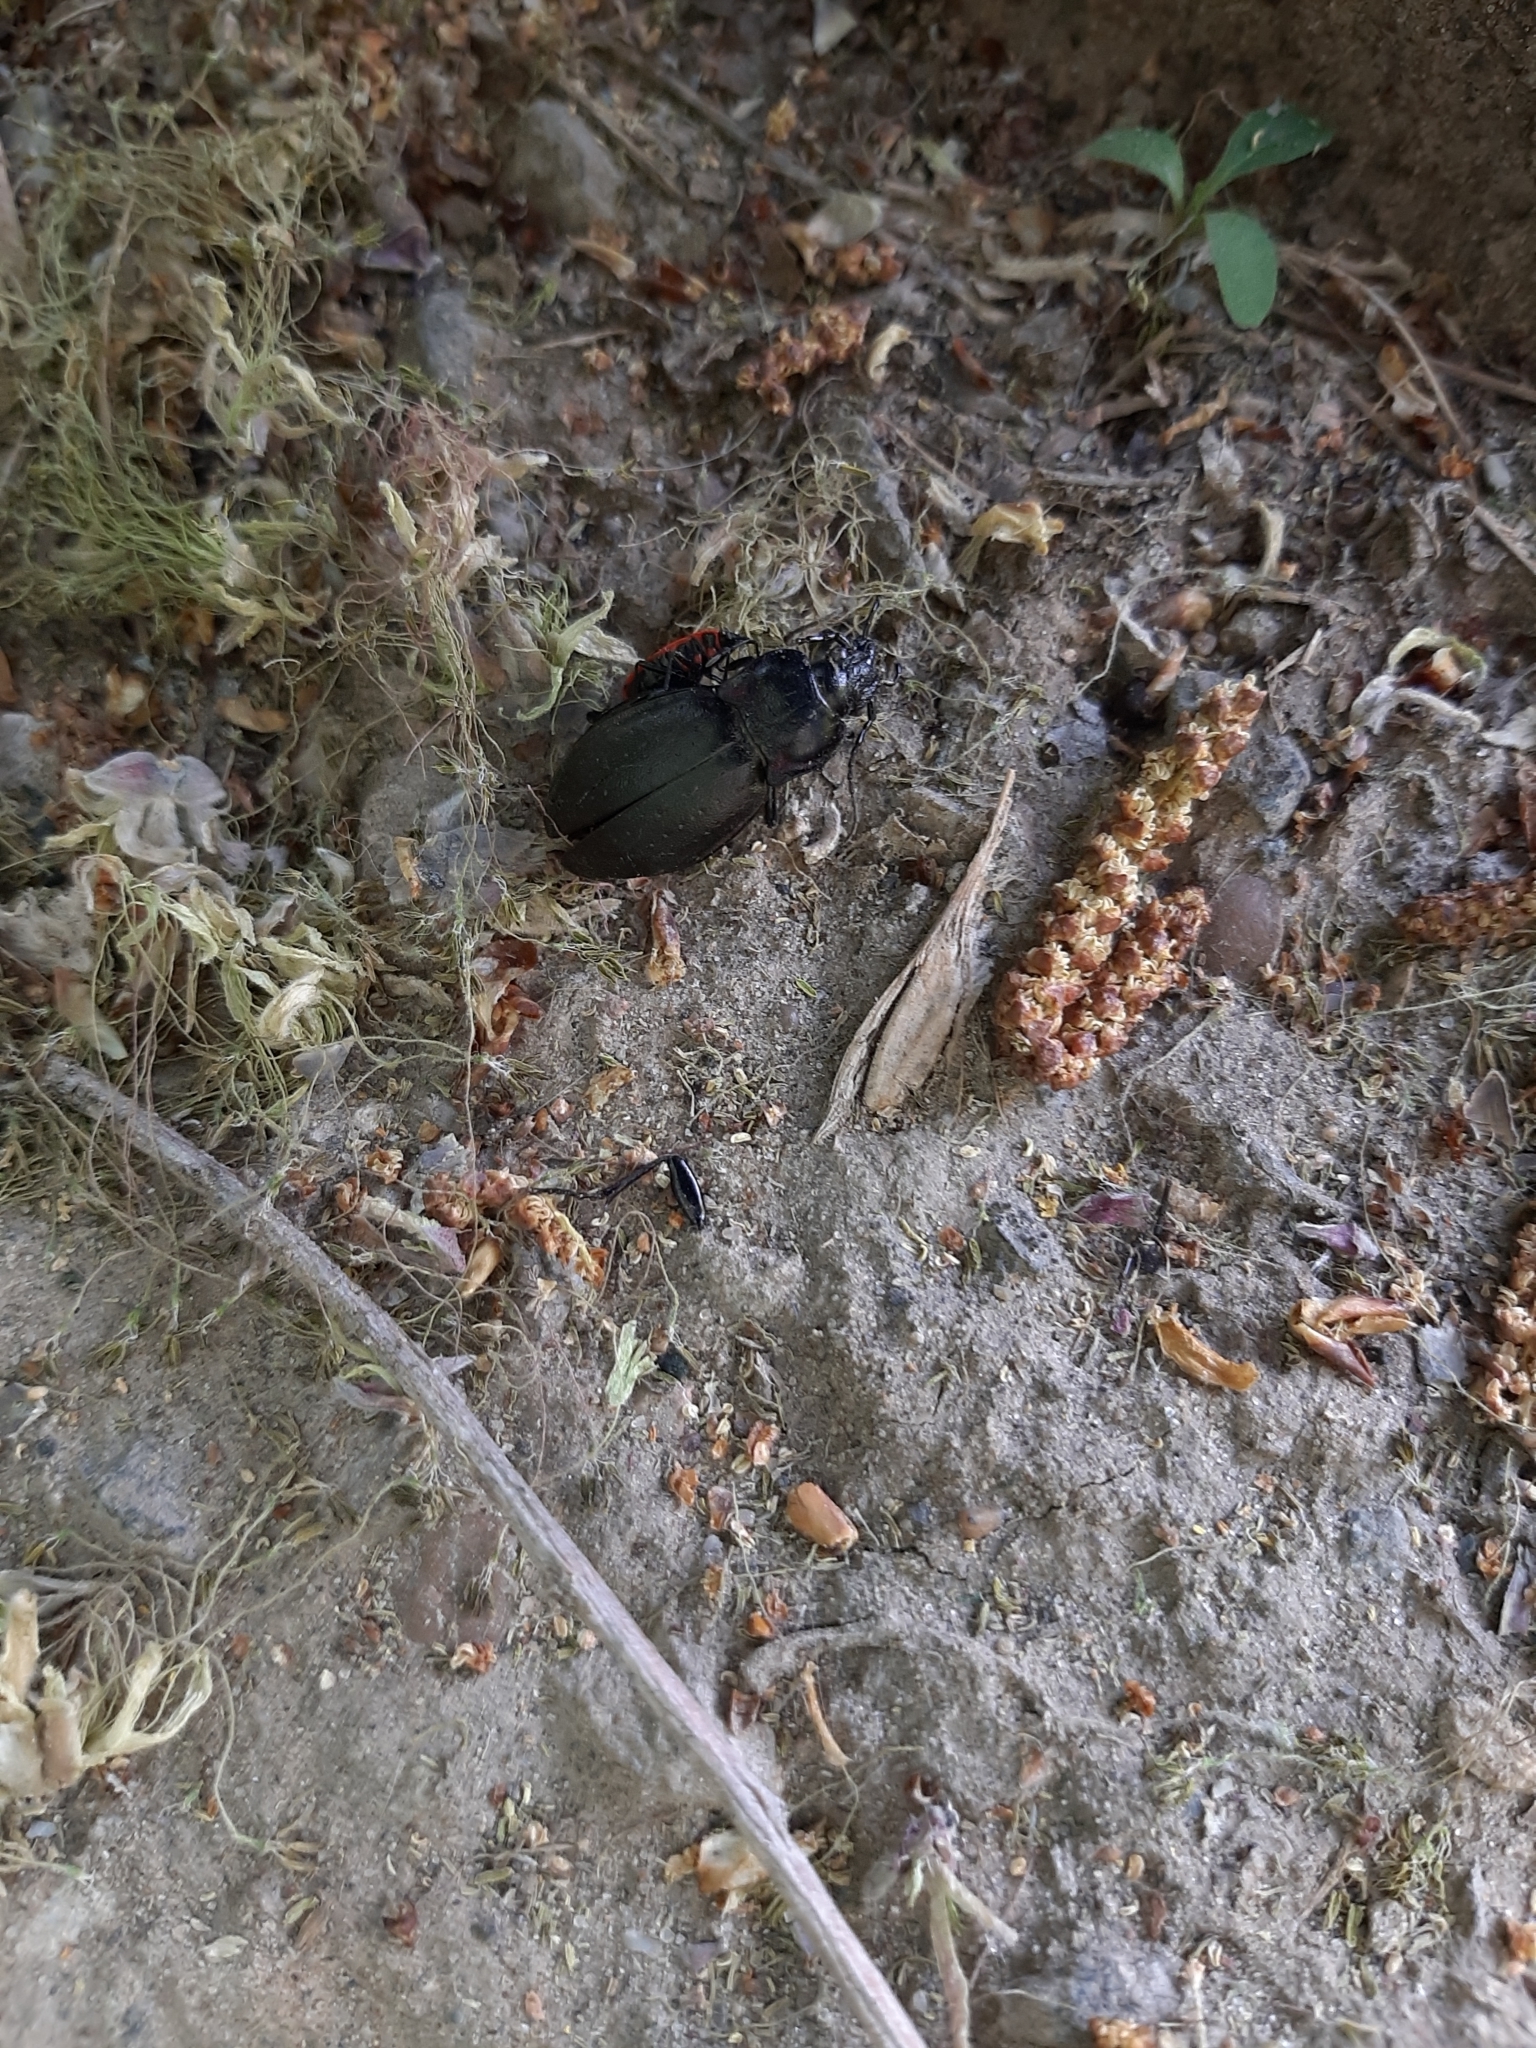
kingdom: Animalia
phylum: Arthropoda
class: Insecta
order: Coleoptera
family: Carabidae
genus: Carabus
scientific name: Carabus nemoralis
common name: European ground beetle
